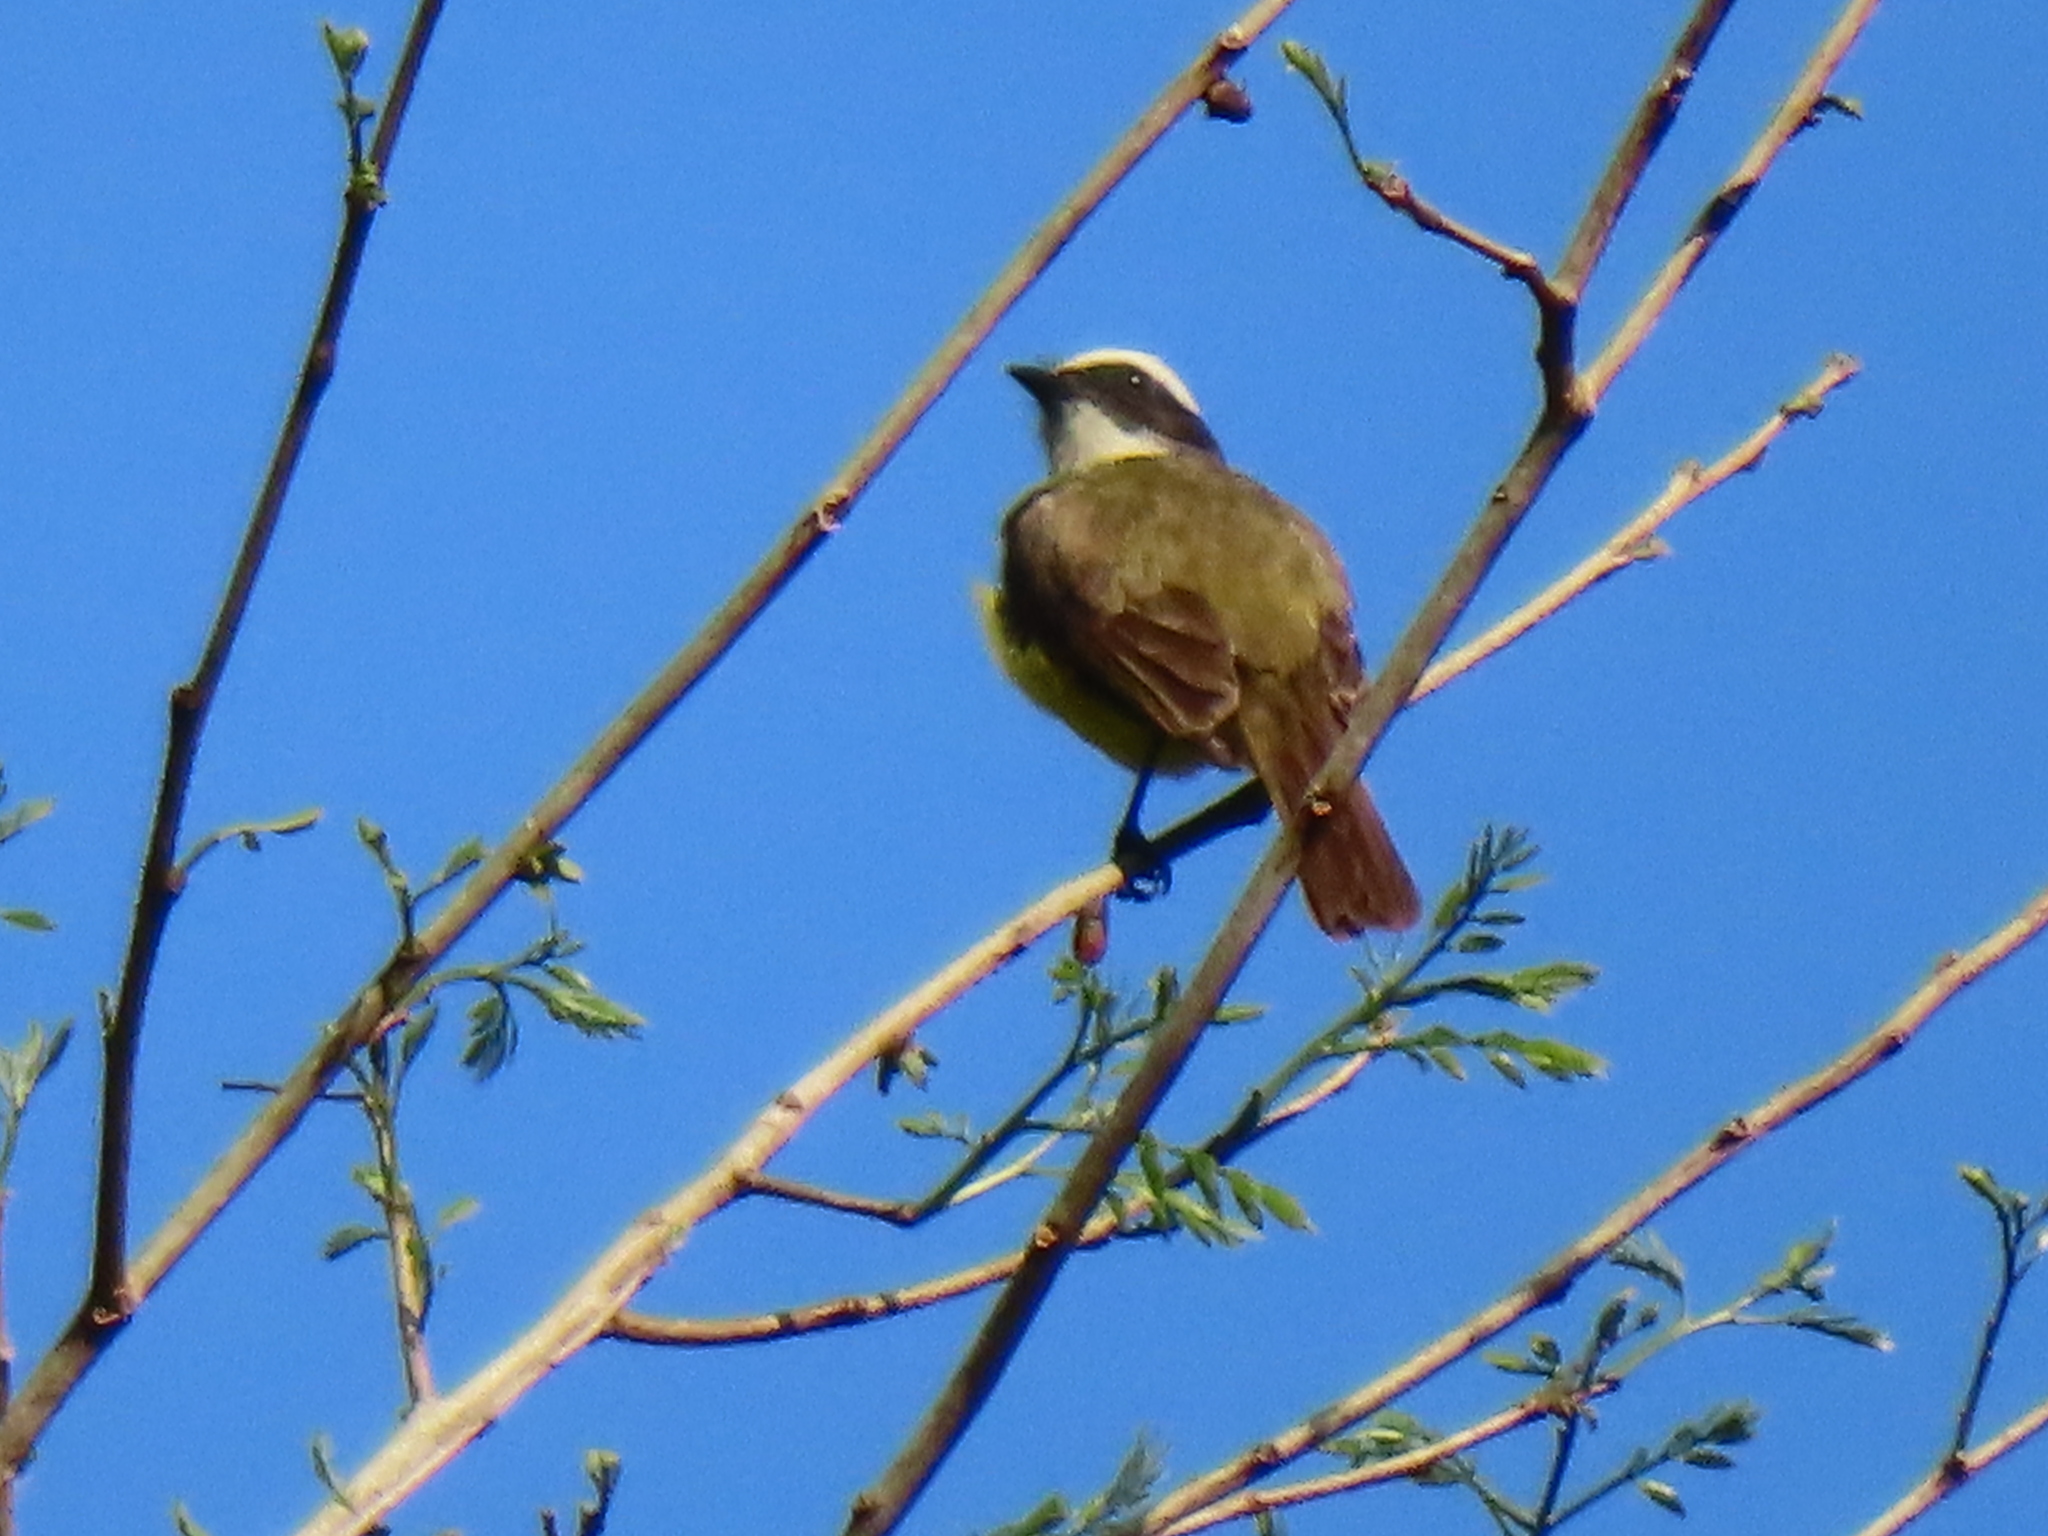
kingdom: Animalia
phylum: Chordata
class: Aves
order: Passeriformes
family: Tyrannidae
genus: Myiozetetes
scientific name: Myiozetetes similis
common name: Social flycatcher
